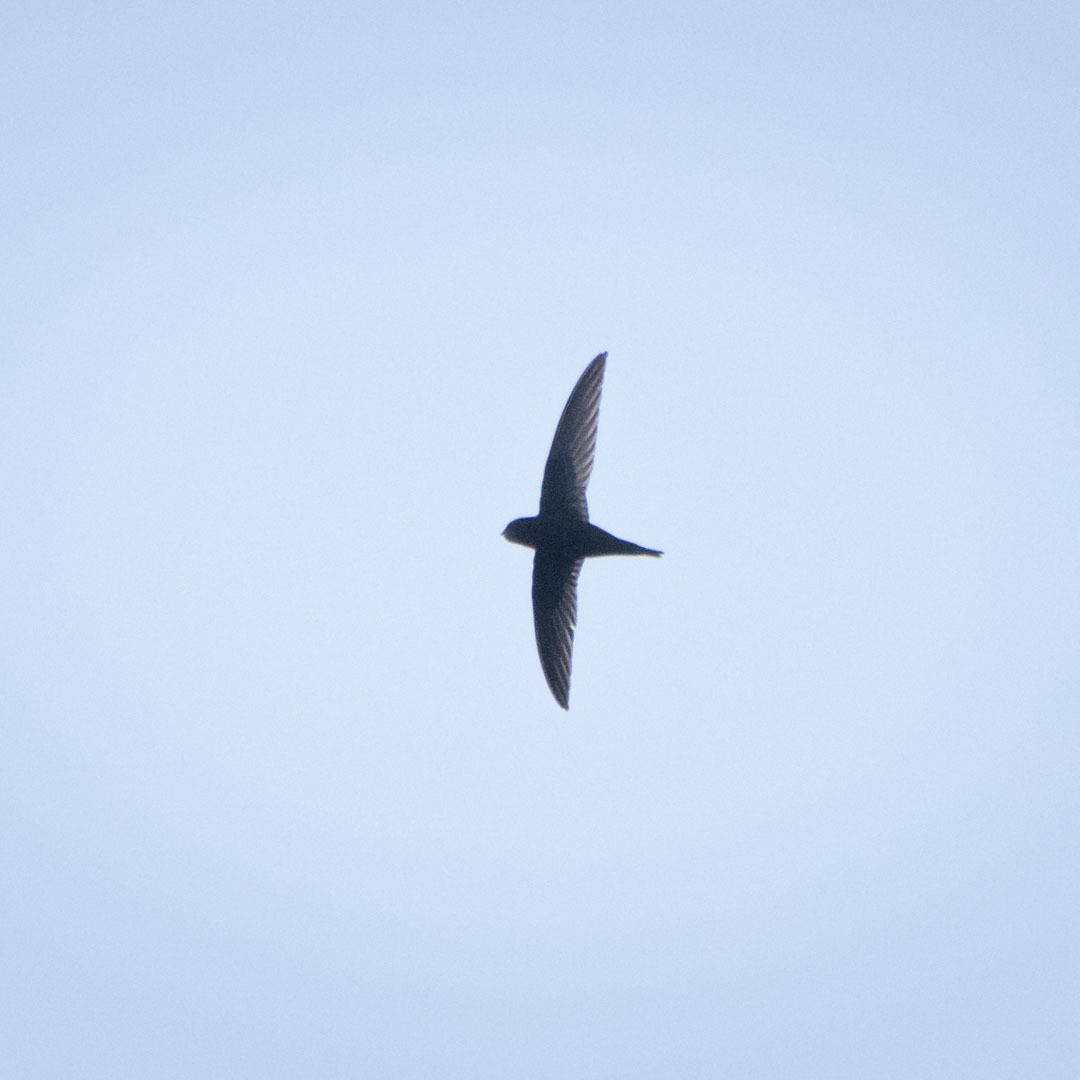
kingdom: Animalia
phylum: Chordata
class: Aves
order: Apodiformes
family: Apodidae
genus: Apus
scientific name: Apus apus
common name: Common swift
